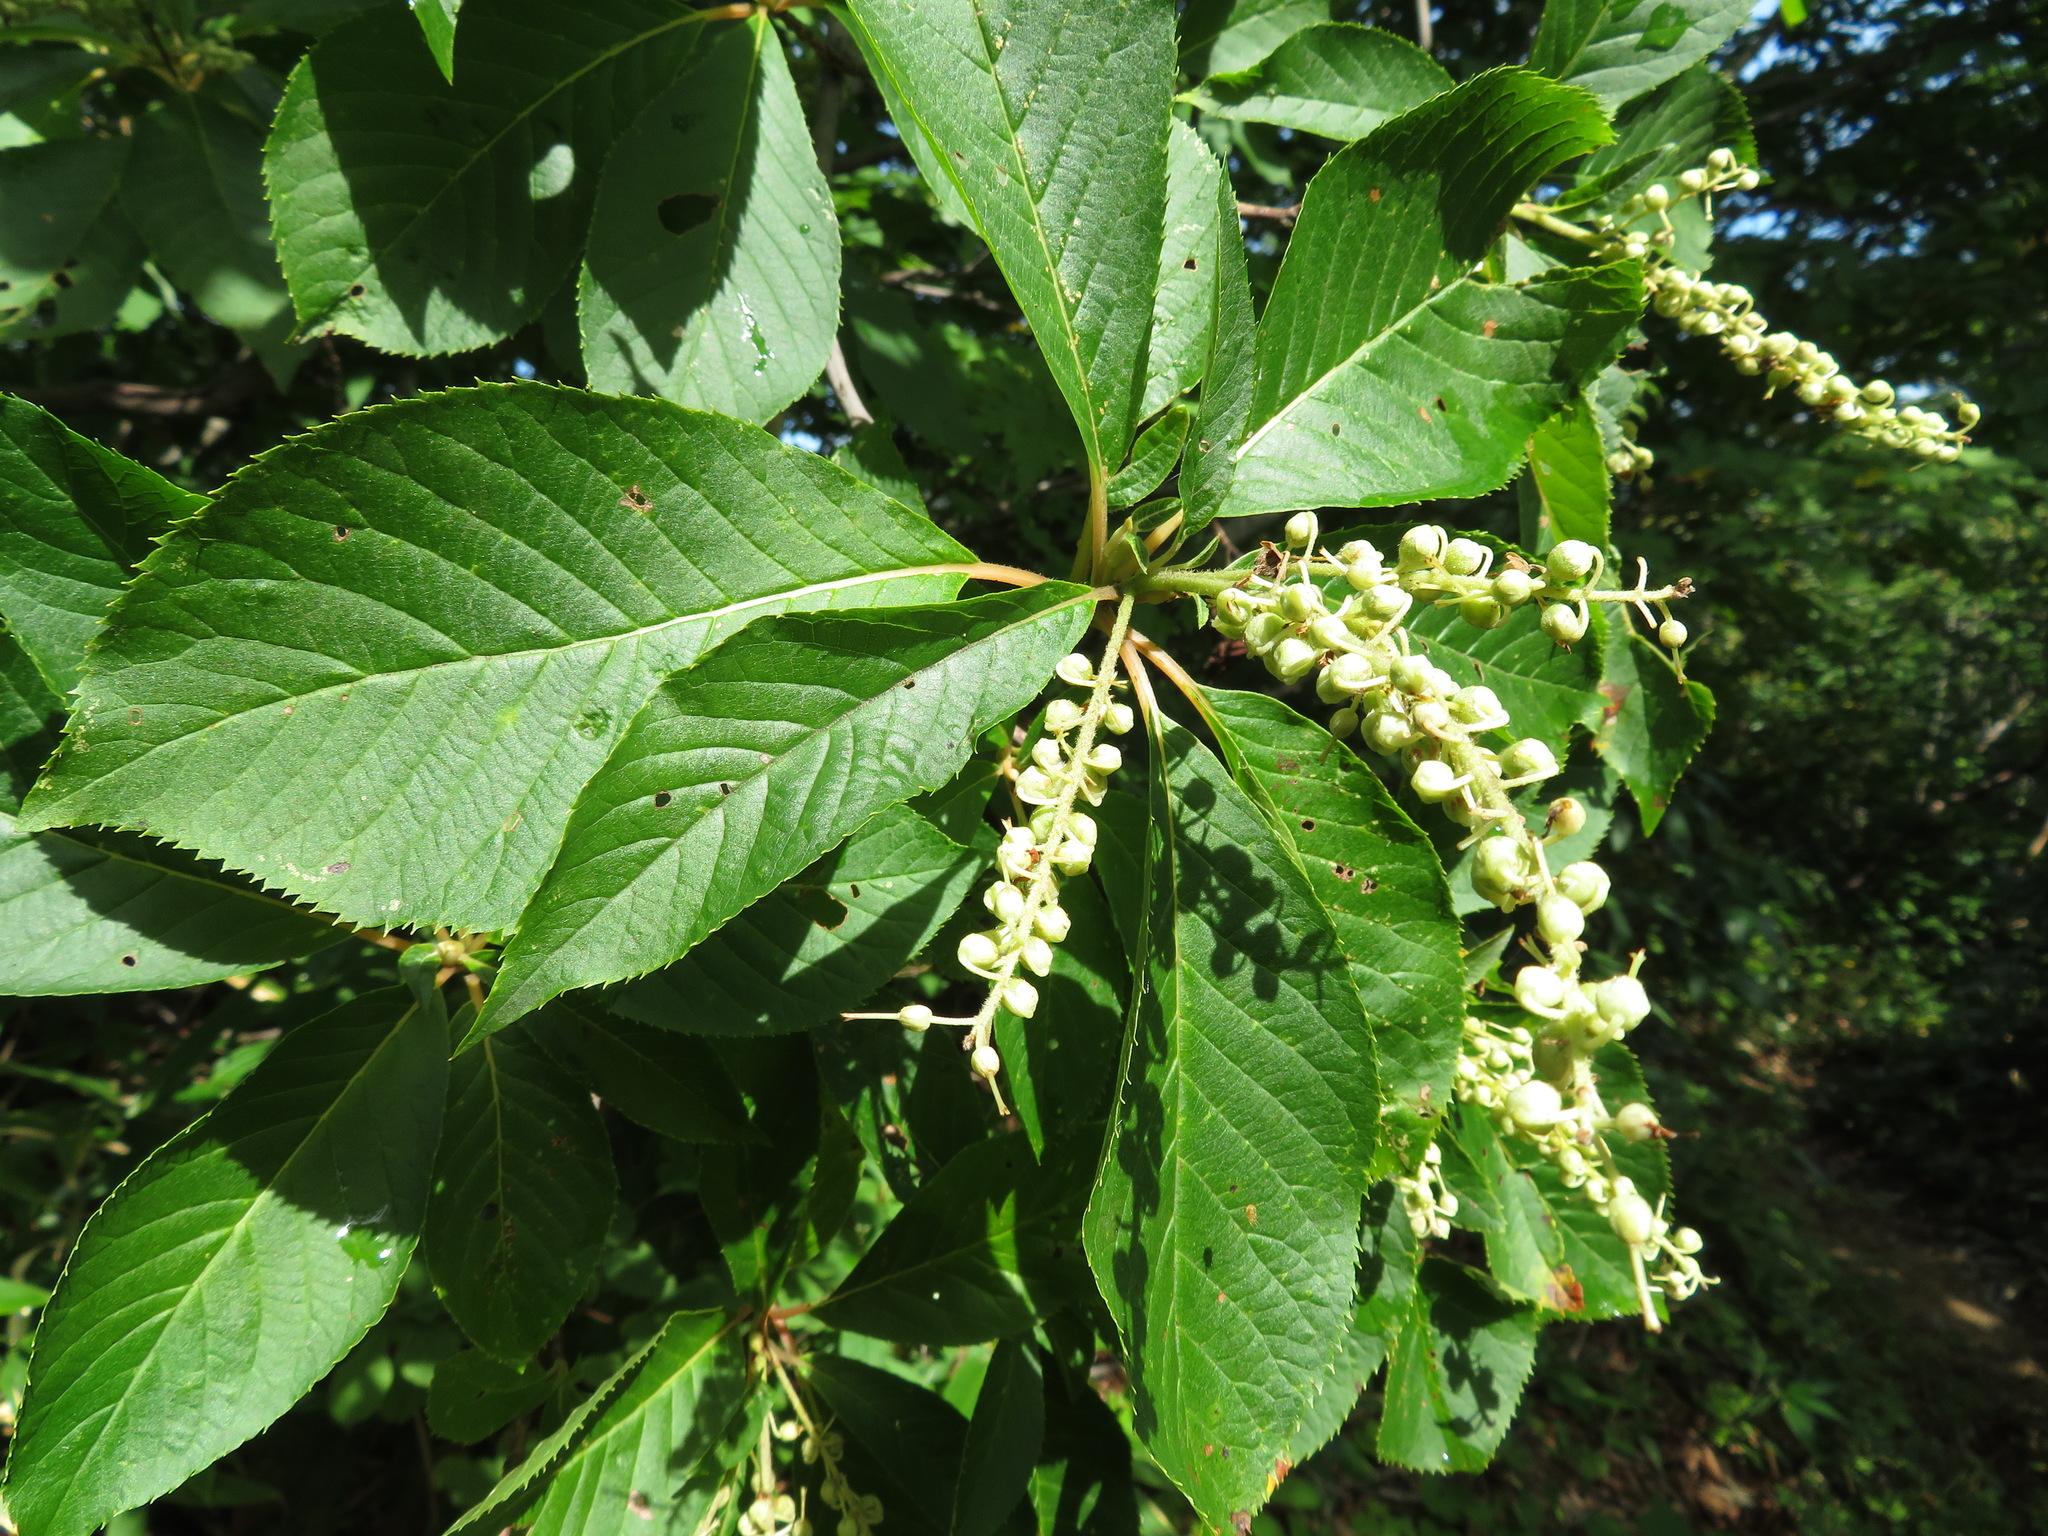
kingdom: Plantae
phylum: Tracheophyta
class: Magnoliopsida
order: Ericales
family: Clethraceae
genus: Clethra
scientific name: Clethra barbinervis
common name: Japanese clethra
